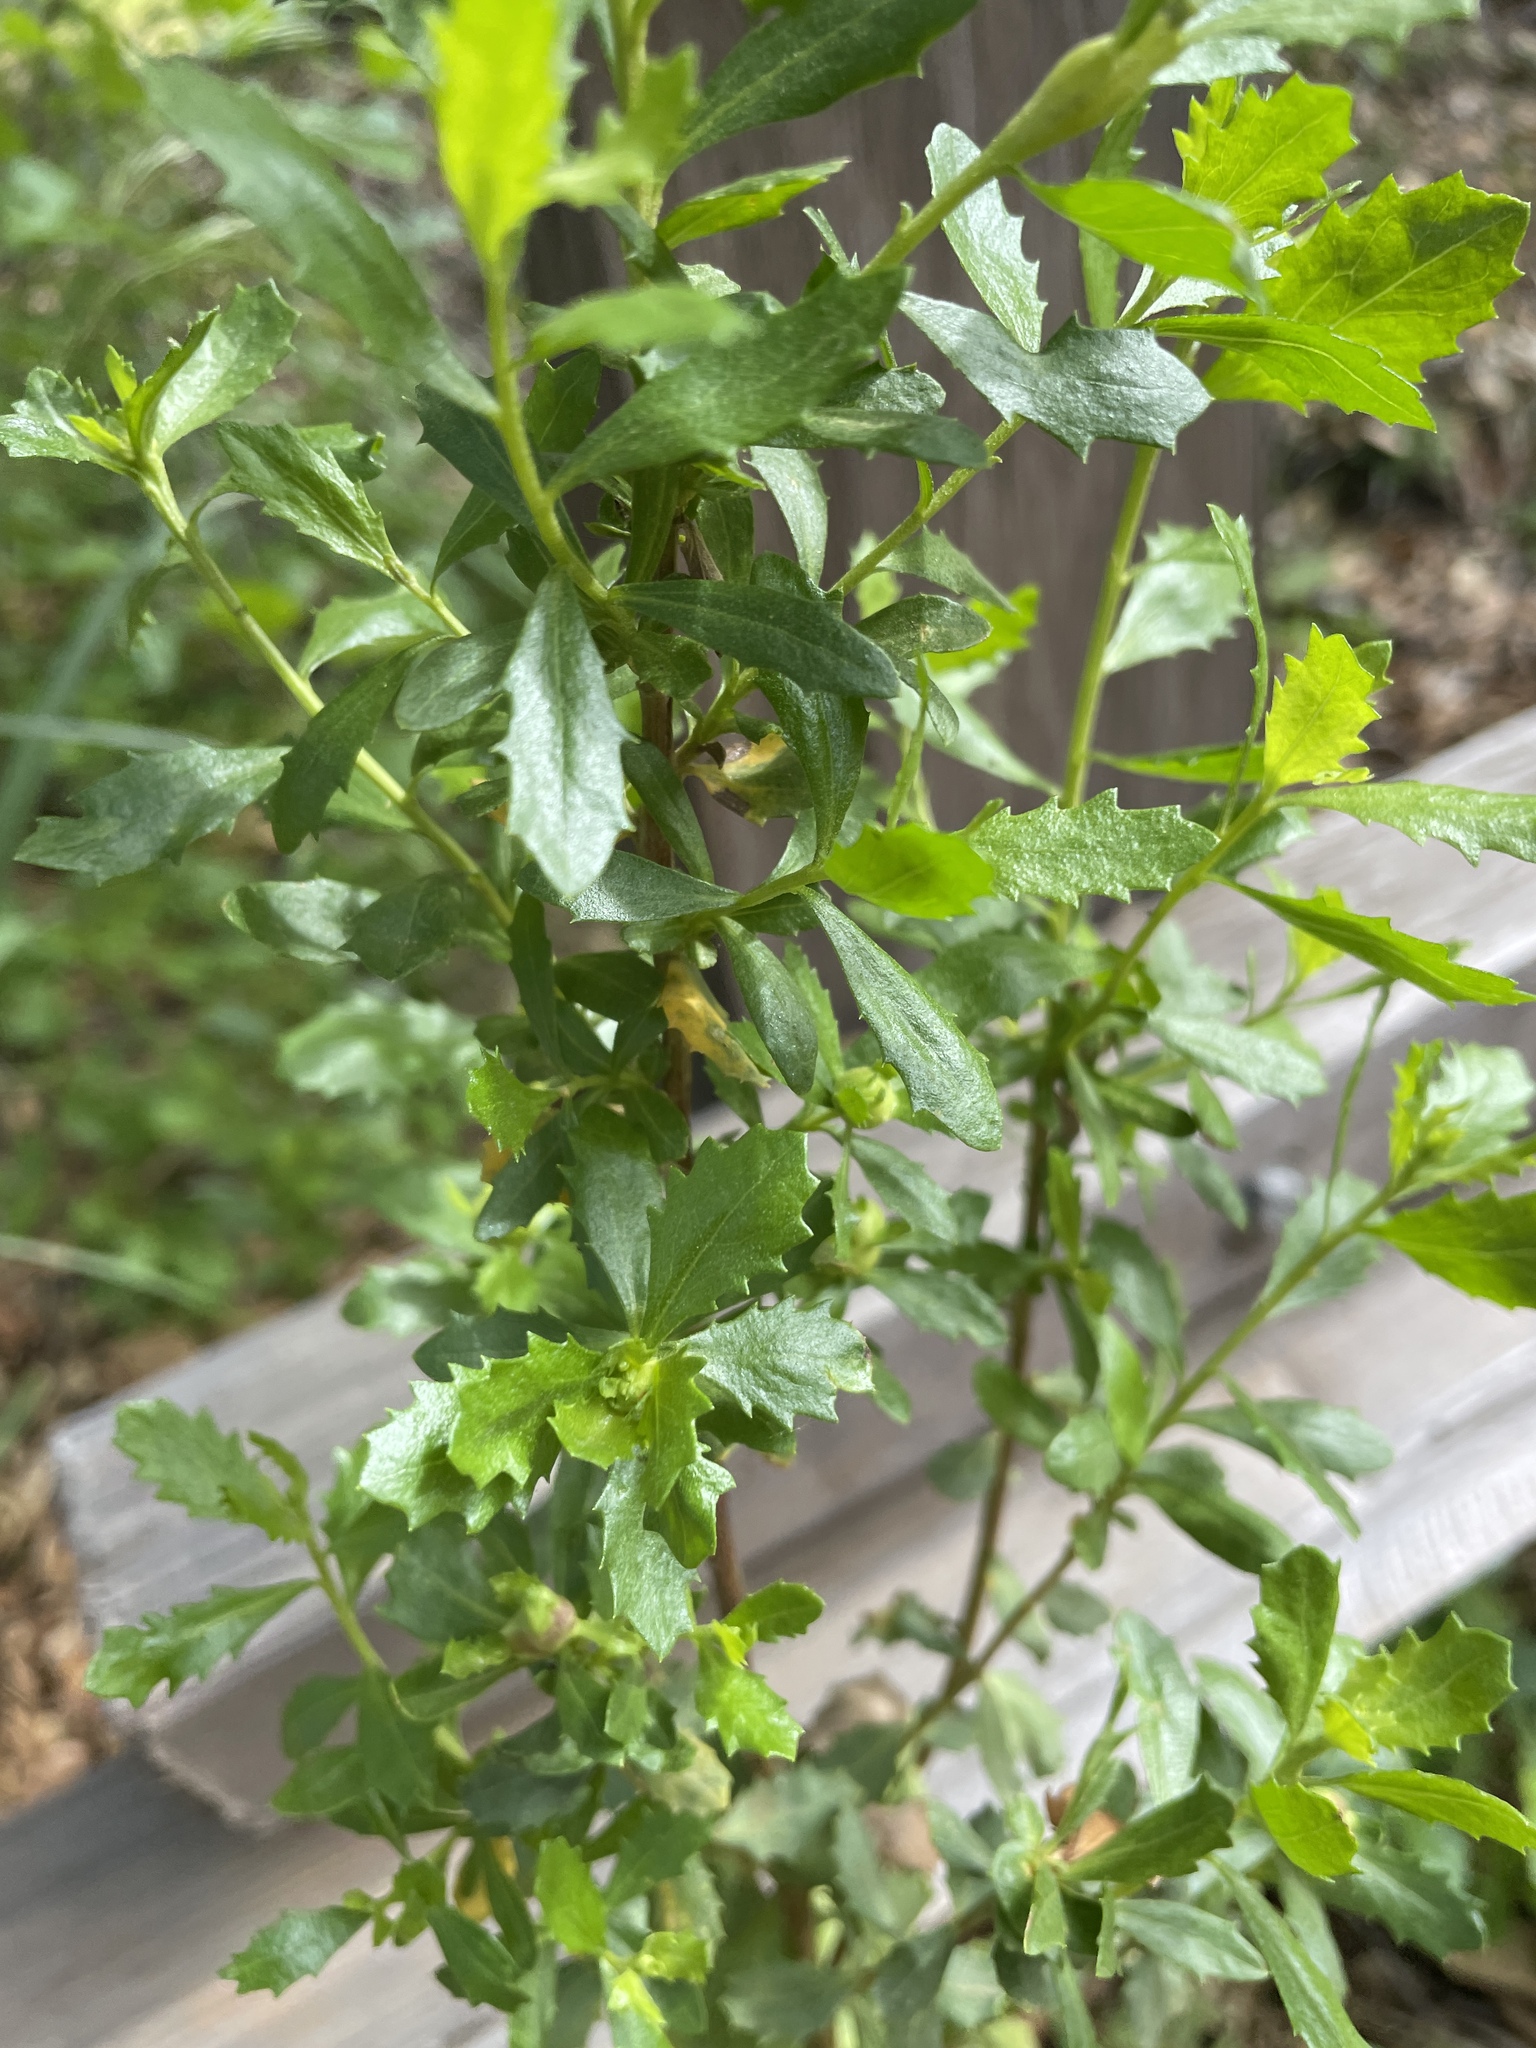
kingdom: Plantae
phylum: Tracheophyta
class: Magnoliopsida
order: Asterales
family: Asteraceae
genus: Baccharis
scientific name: Baccharis pilularis
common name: Coyotebrush
